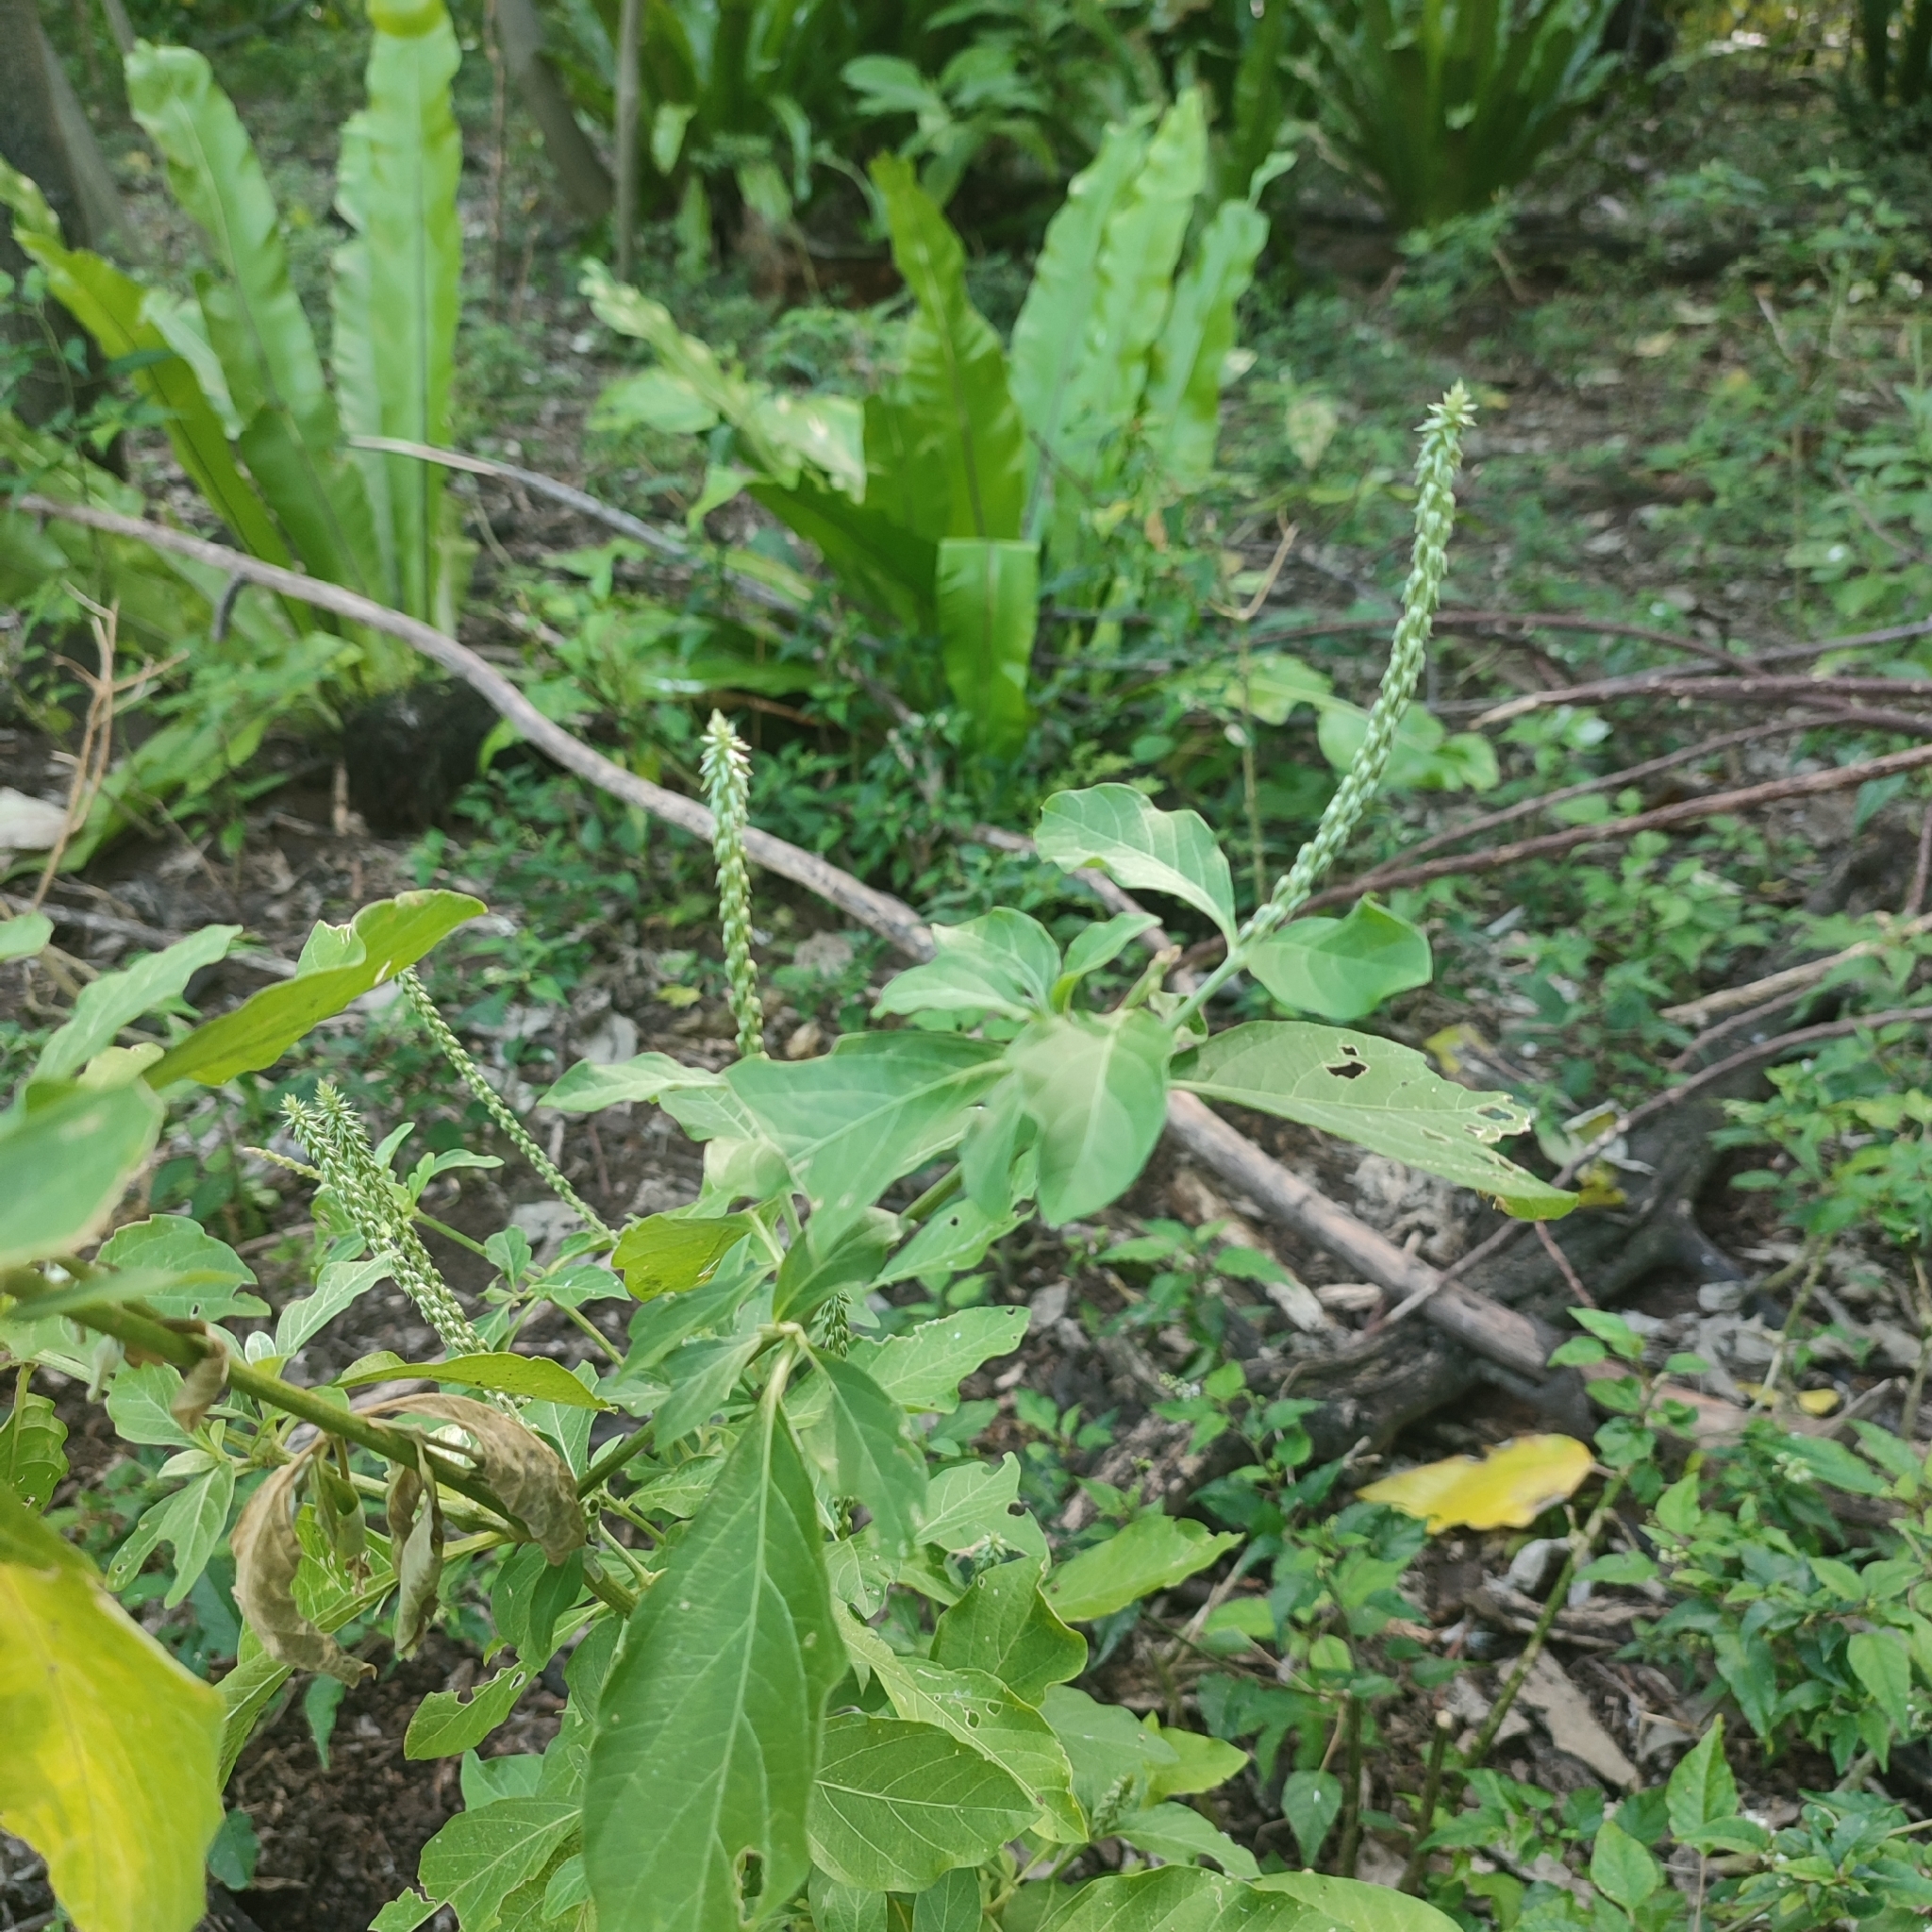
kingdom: Plantae
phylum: Tracheophyta
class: Magnoliopsida
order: Caryophyllales
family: Amaranthaceae
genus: Achyranthes
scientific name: Achyranthes aspera
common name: Devil's horsewhip
